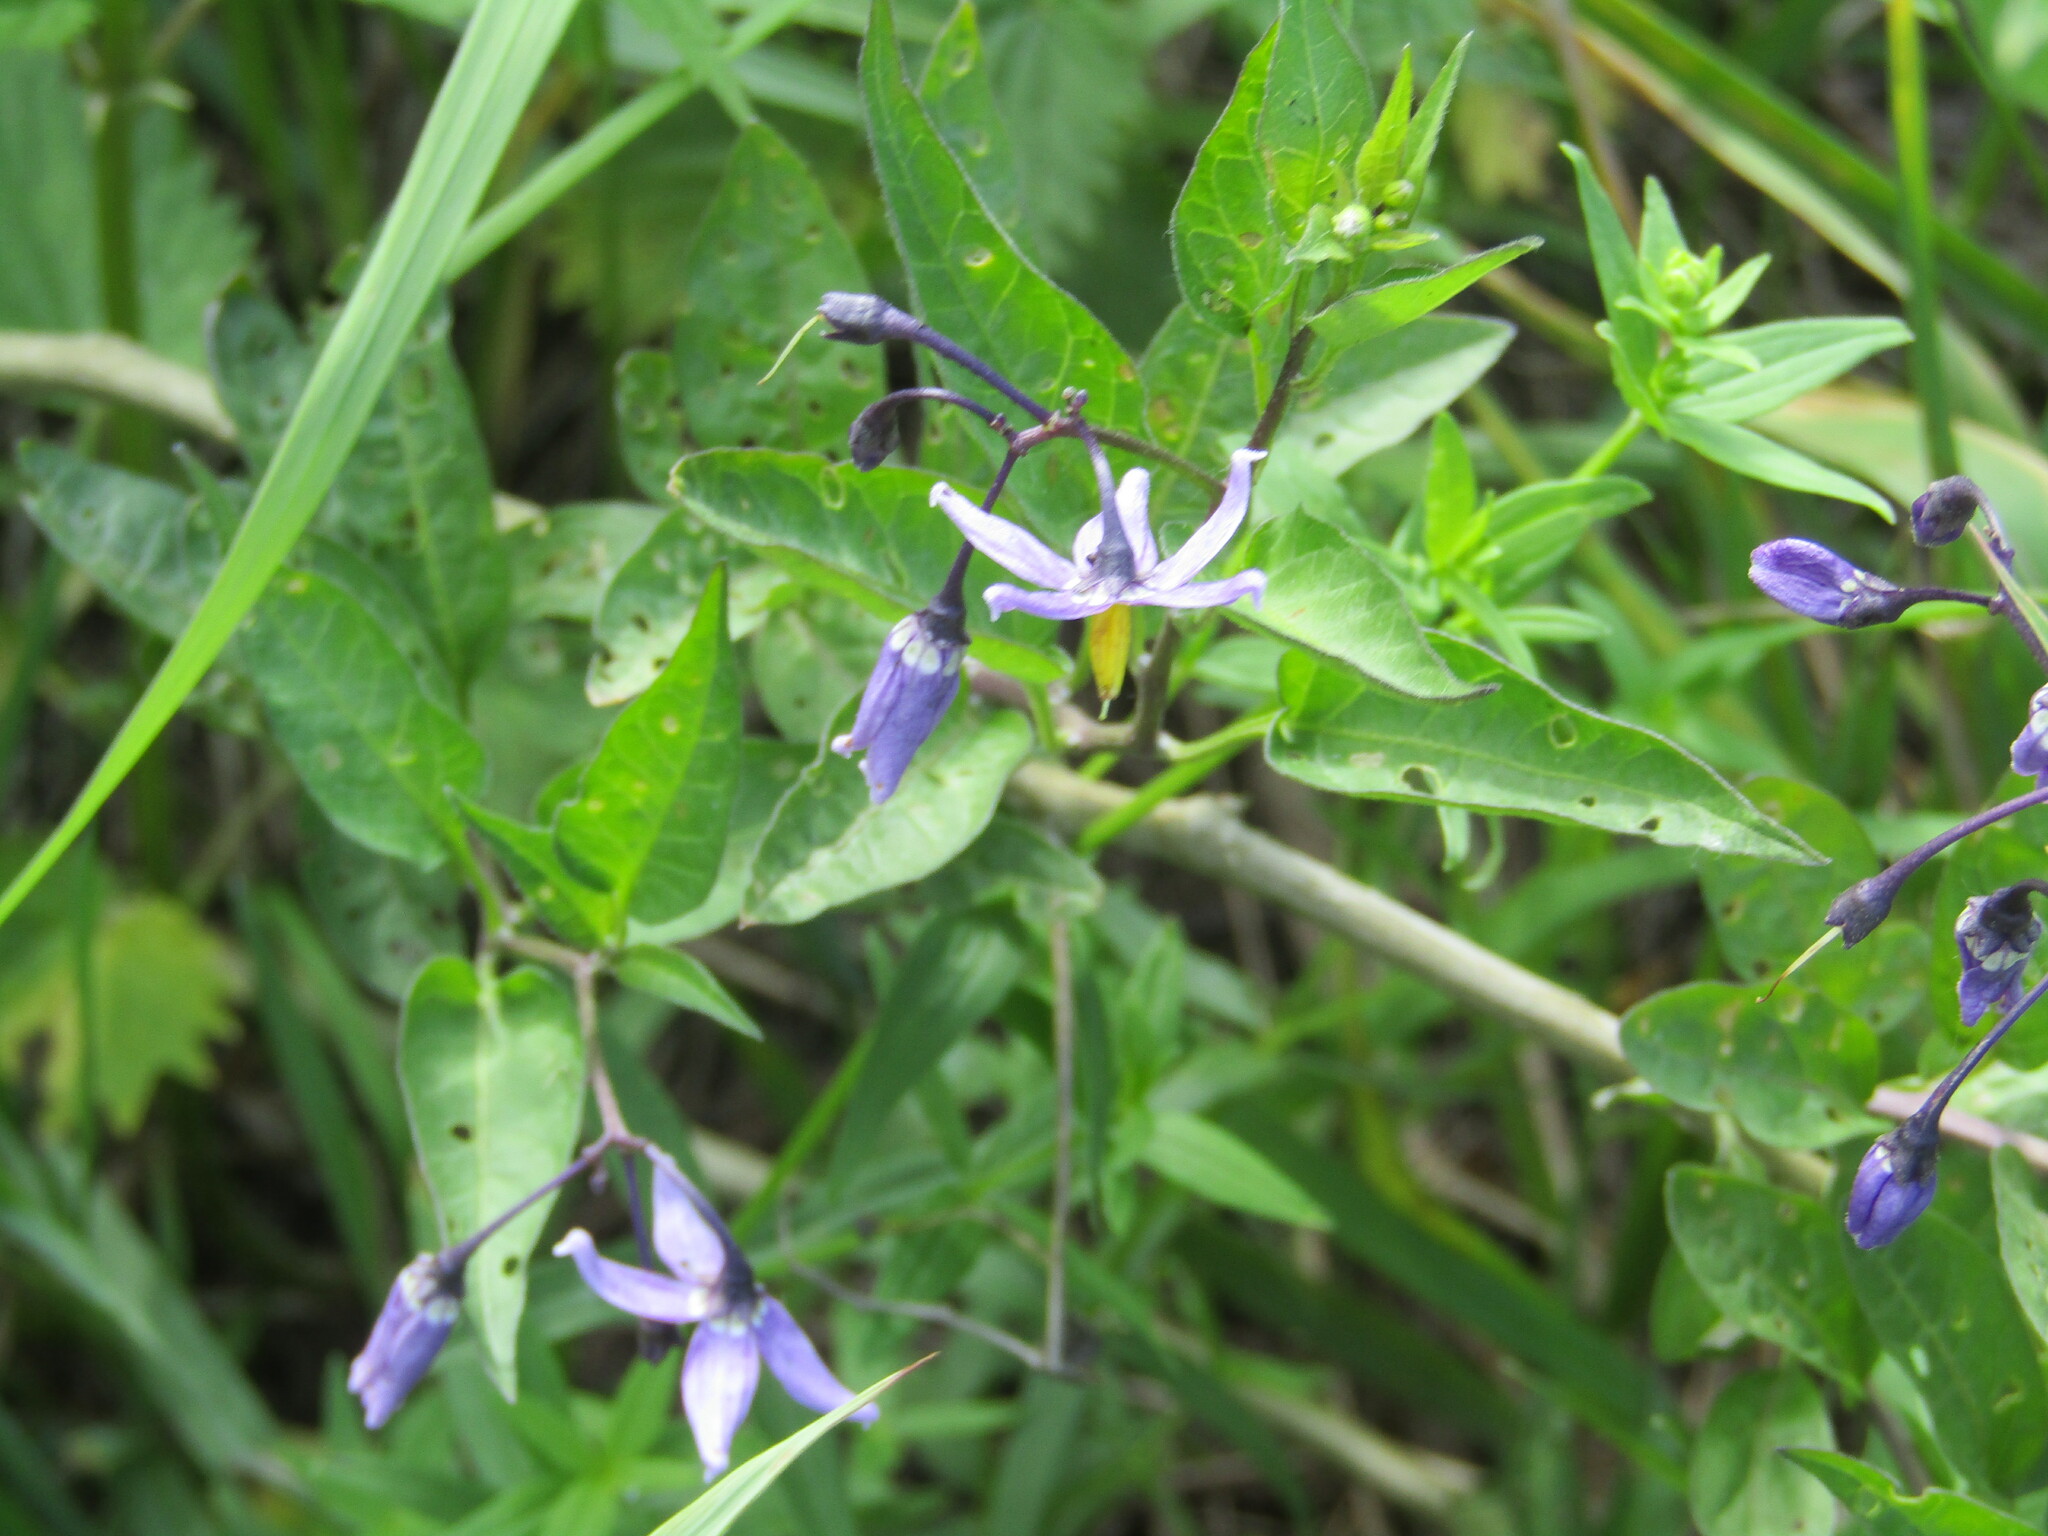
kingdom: Plantae
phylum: Tracheophyta
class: Magnoliopsida
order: Solanales
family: Solanaceae
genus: Solanum
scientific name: Solanum dulcamara
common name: Climbing nightshade
